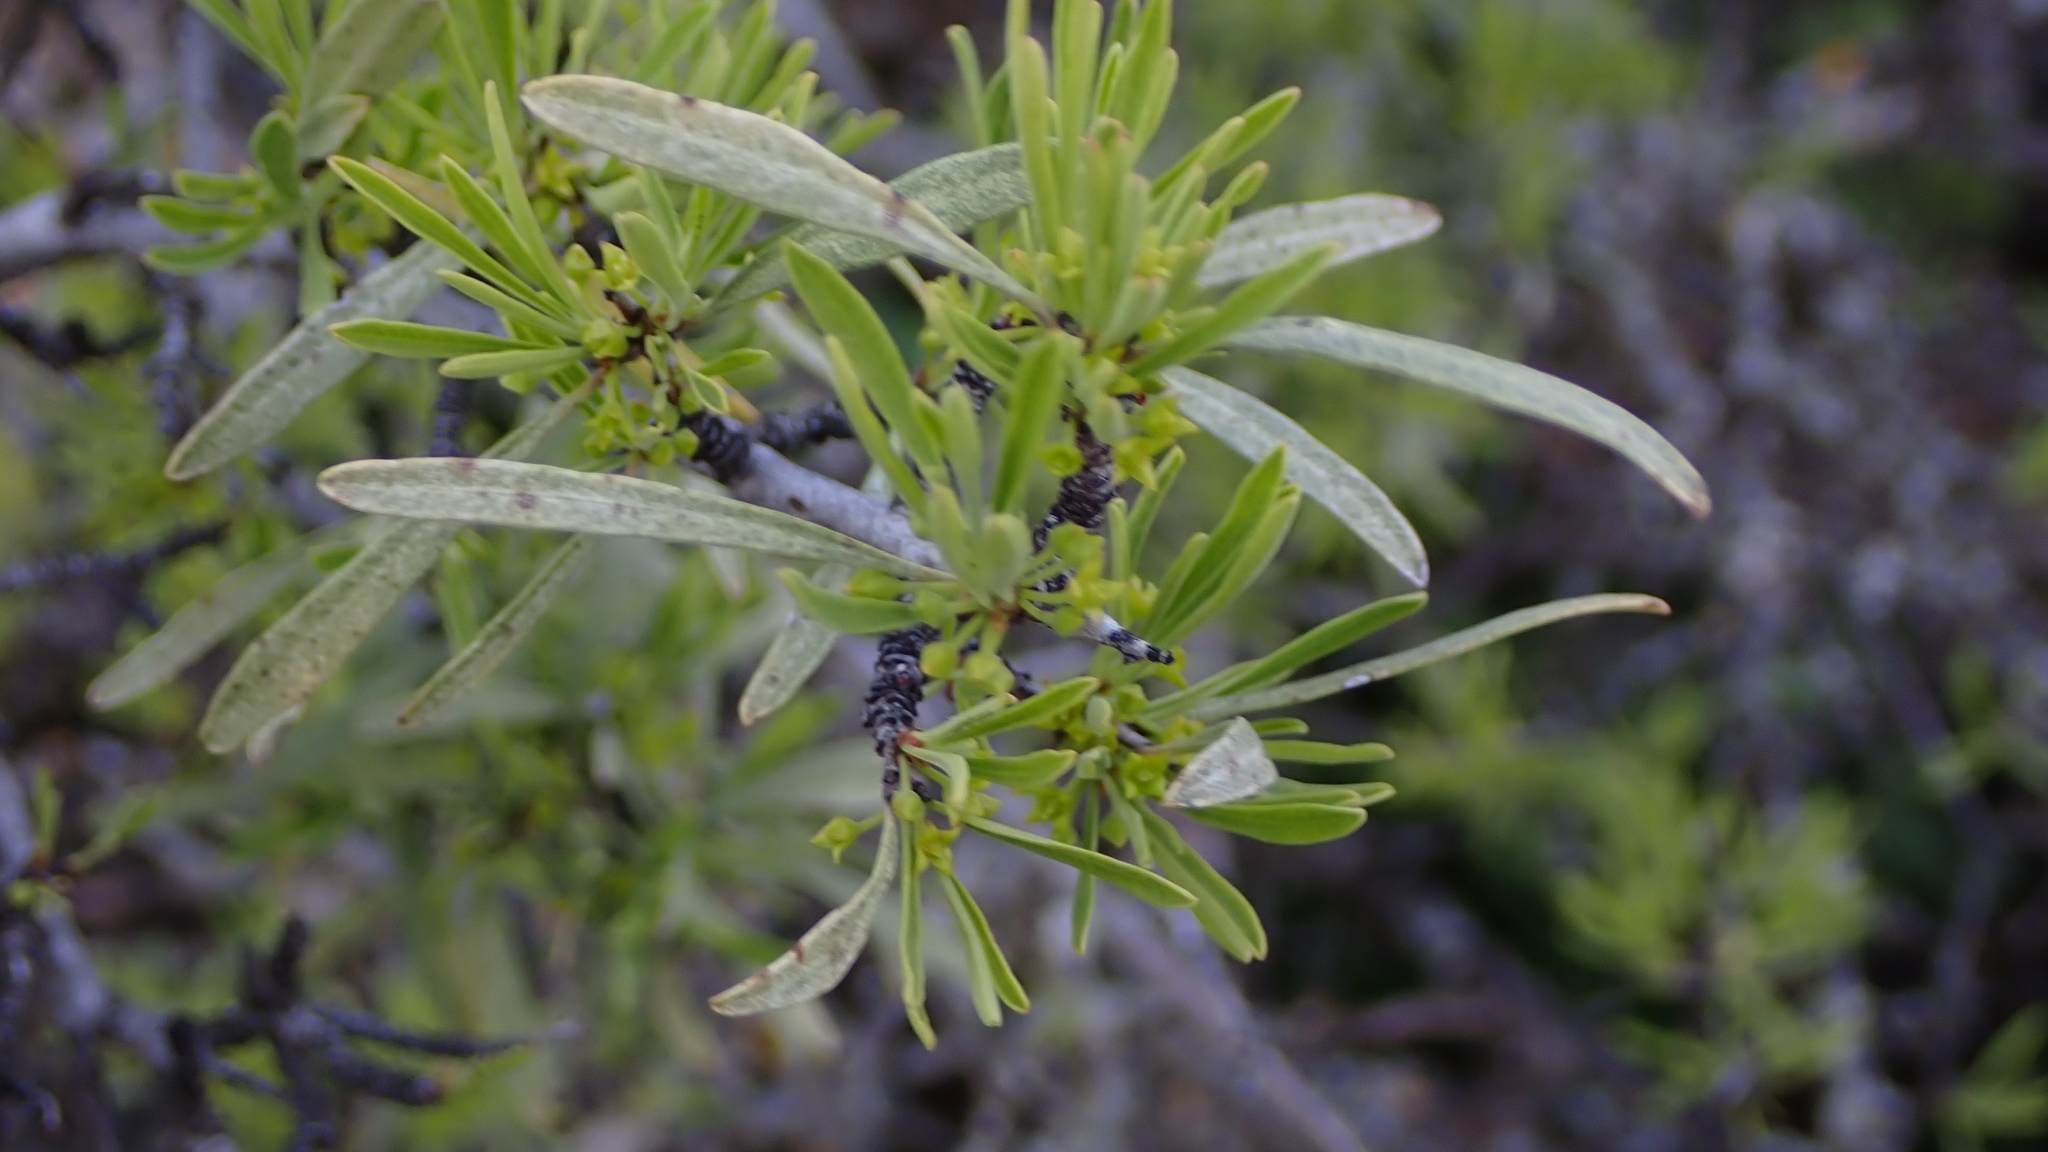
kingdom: Plantae
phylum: Tracheophyta
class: Magnoliopsida
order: Rosales
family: Rhamnaceae
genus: Rhamnus
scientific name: Rhamnus lycioides
